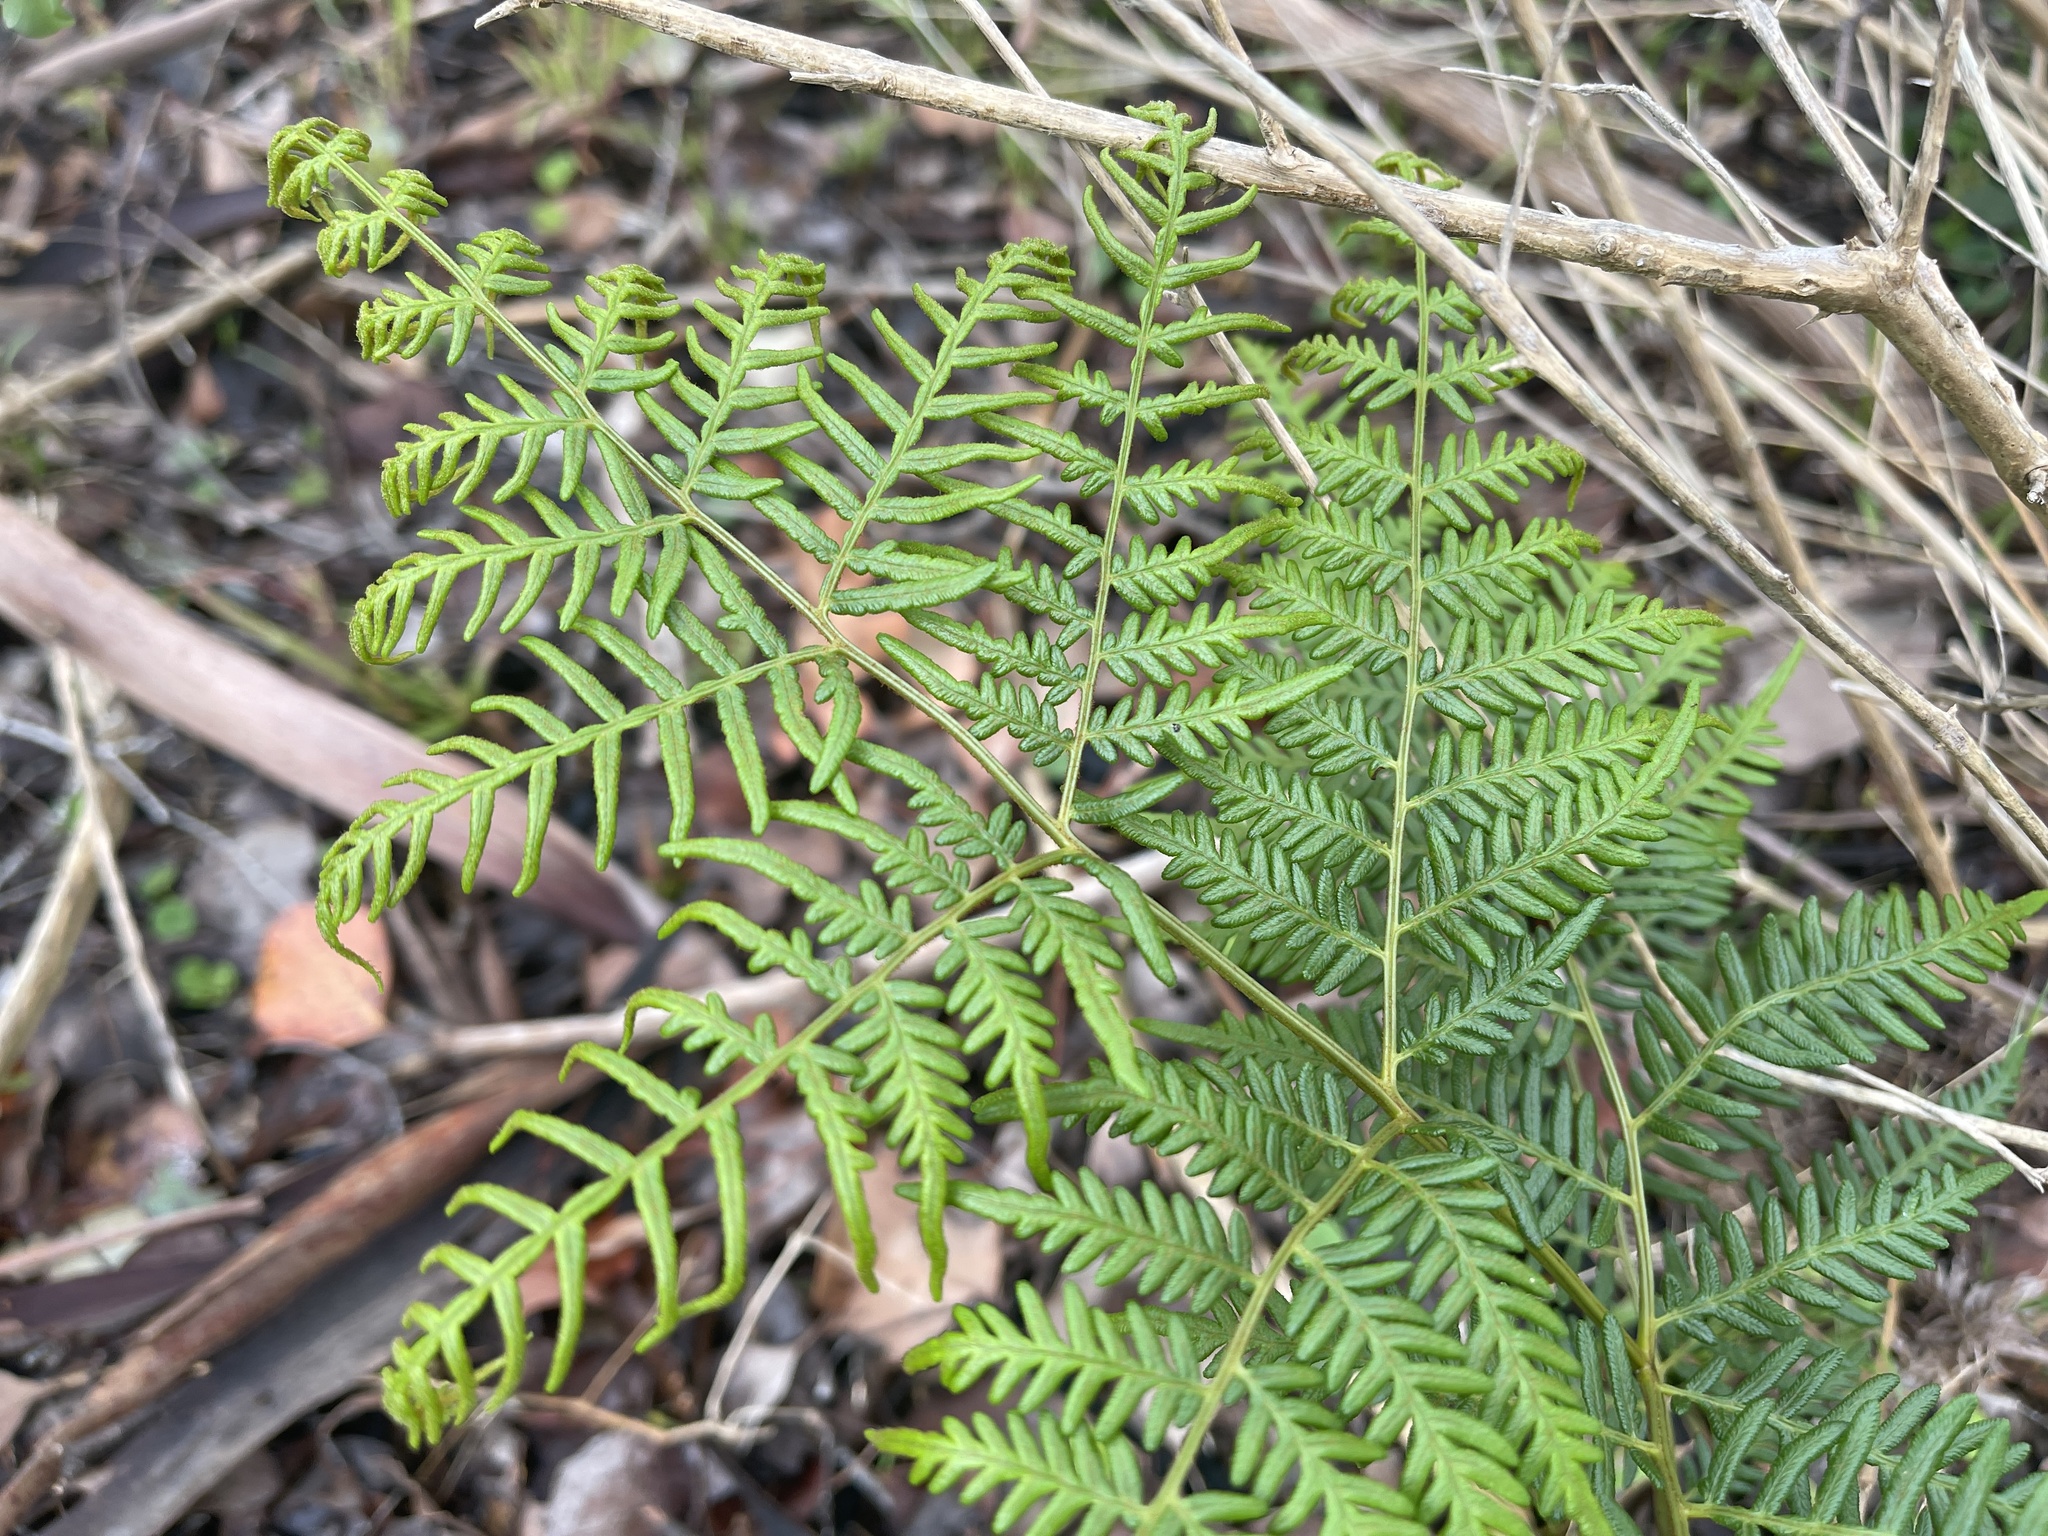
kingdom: Plantae
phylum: Tracheophyta
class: Polypodiopsida
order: Polypodiales
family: Dennstaedtiaceae
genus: Pteridium
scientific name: Pteridium esculentum
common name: Bracken fern
